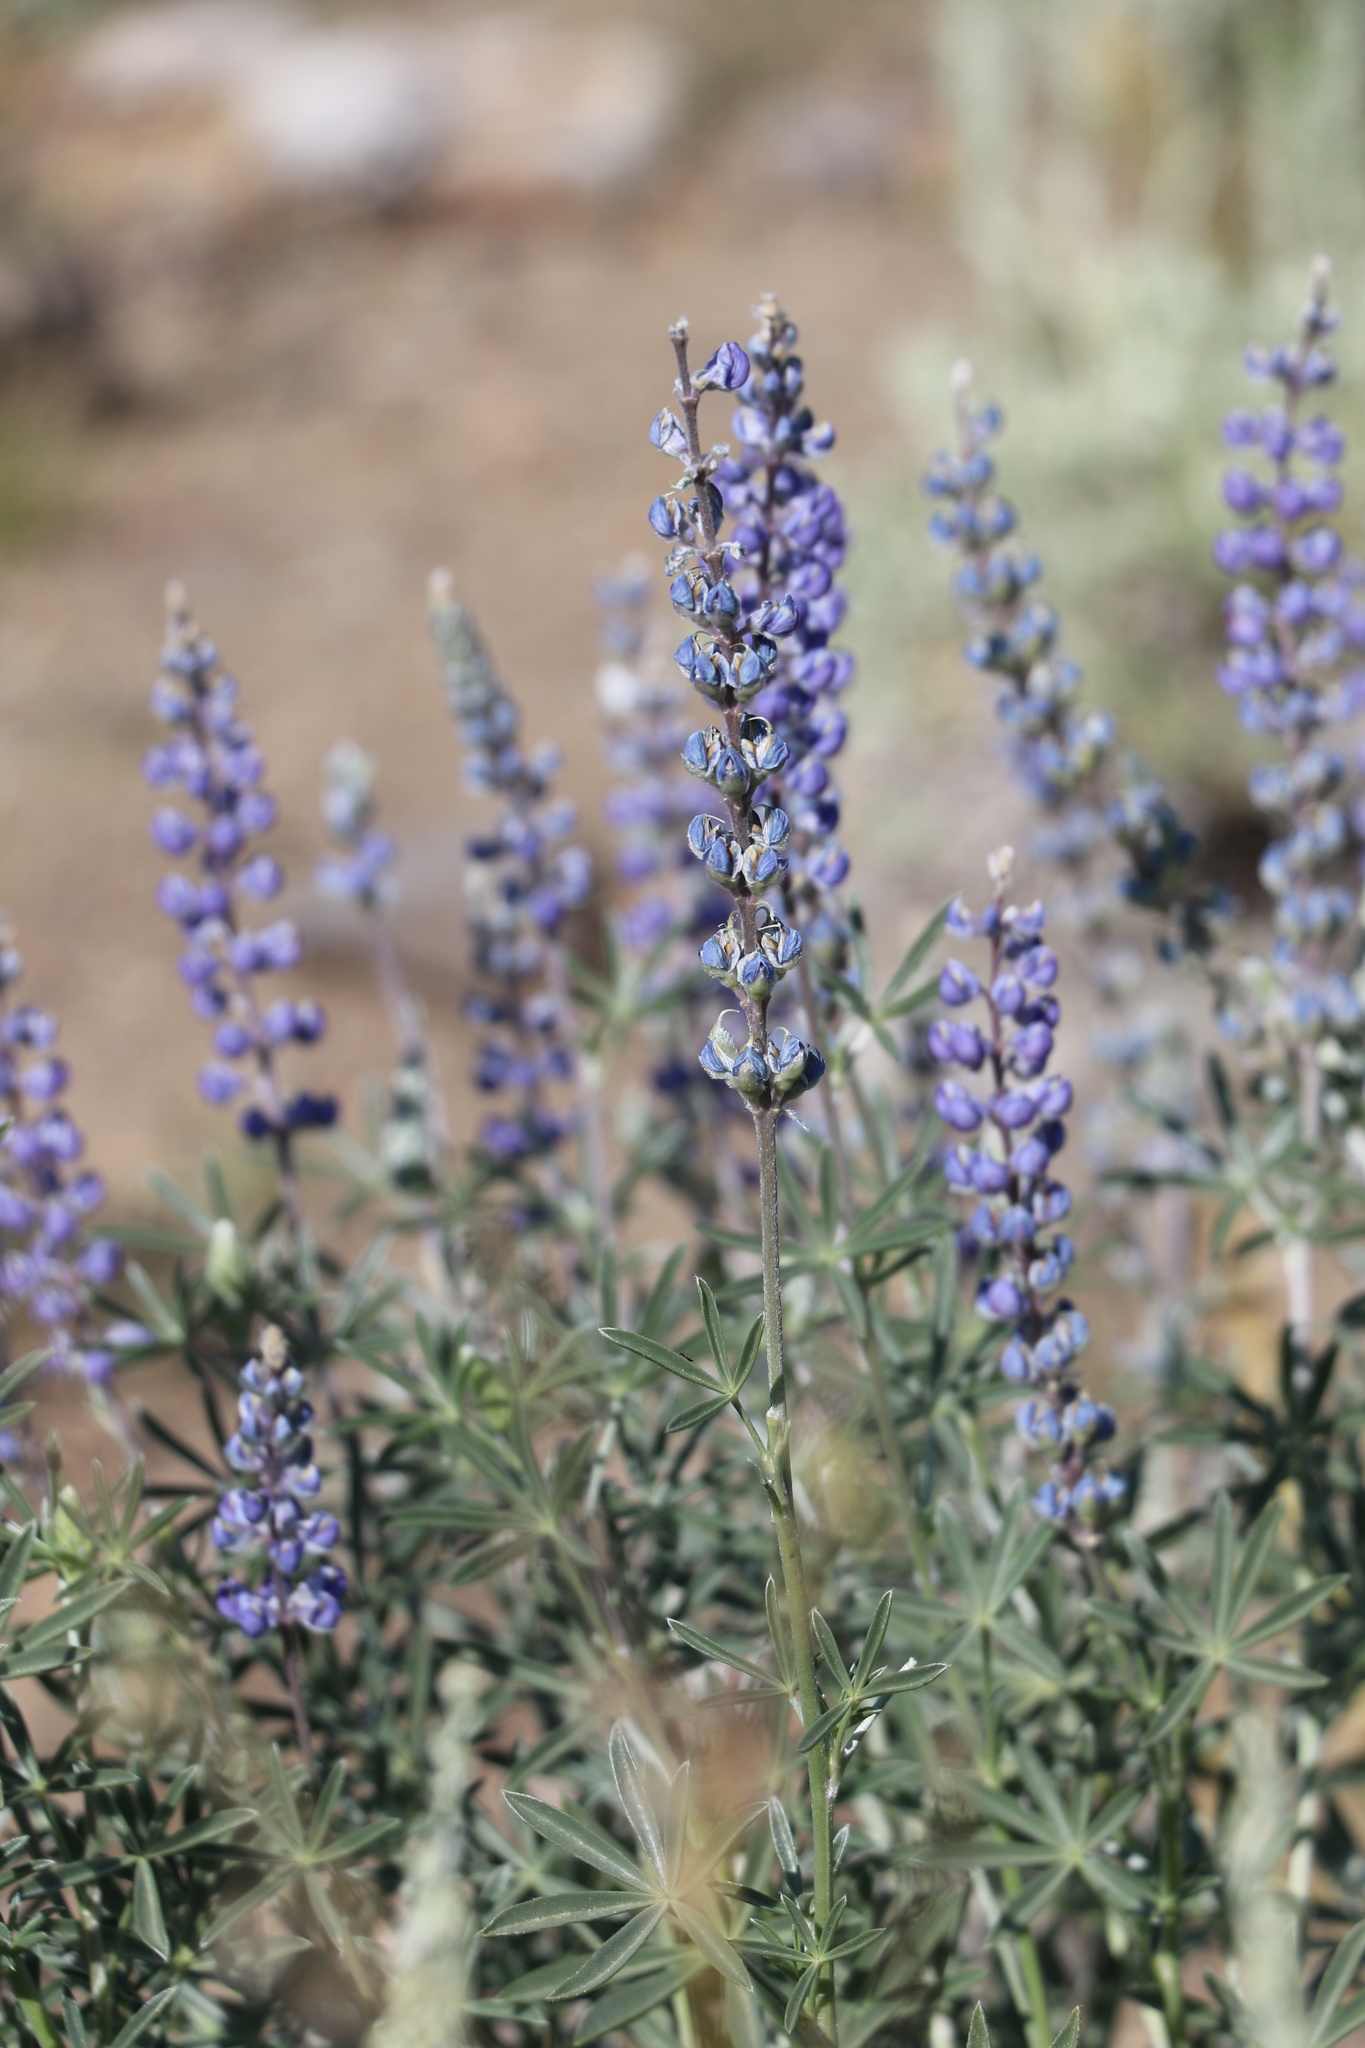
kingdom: Plantae
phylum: Tracheophyta
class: Magnoliopsida
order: Fabales
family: Fabaceae
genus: Lupinus
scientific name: Lupinus meionanthus
